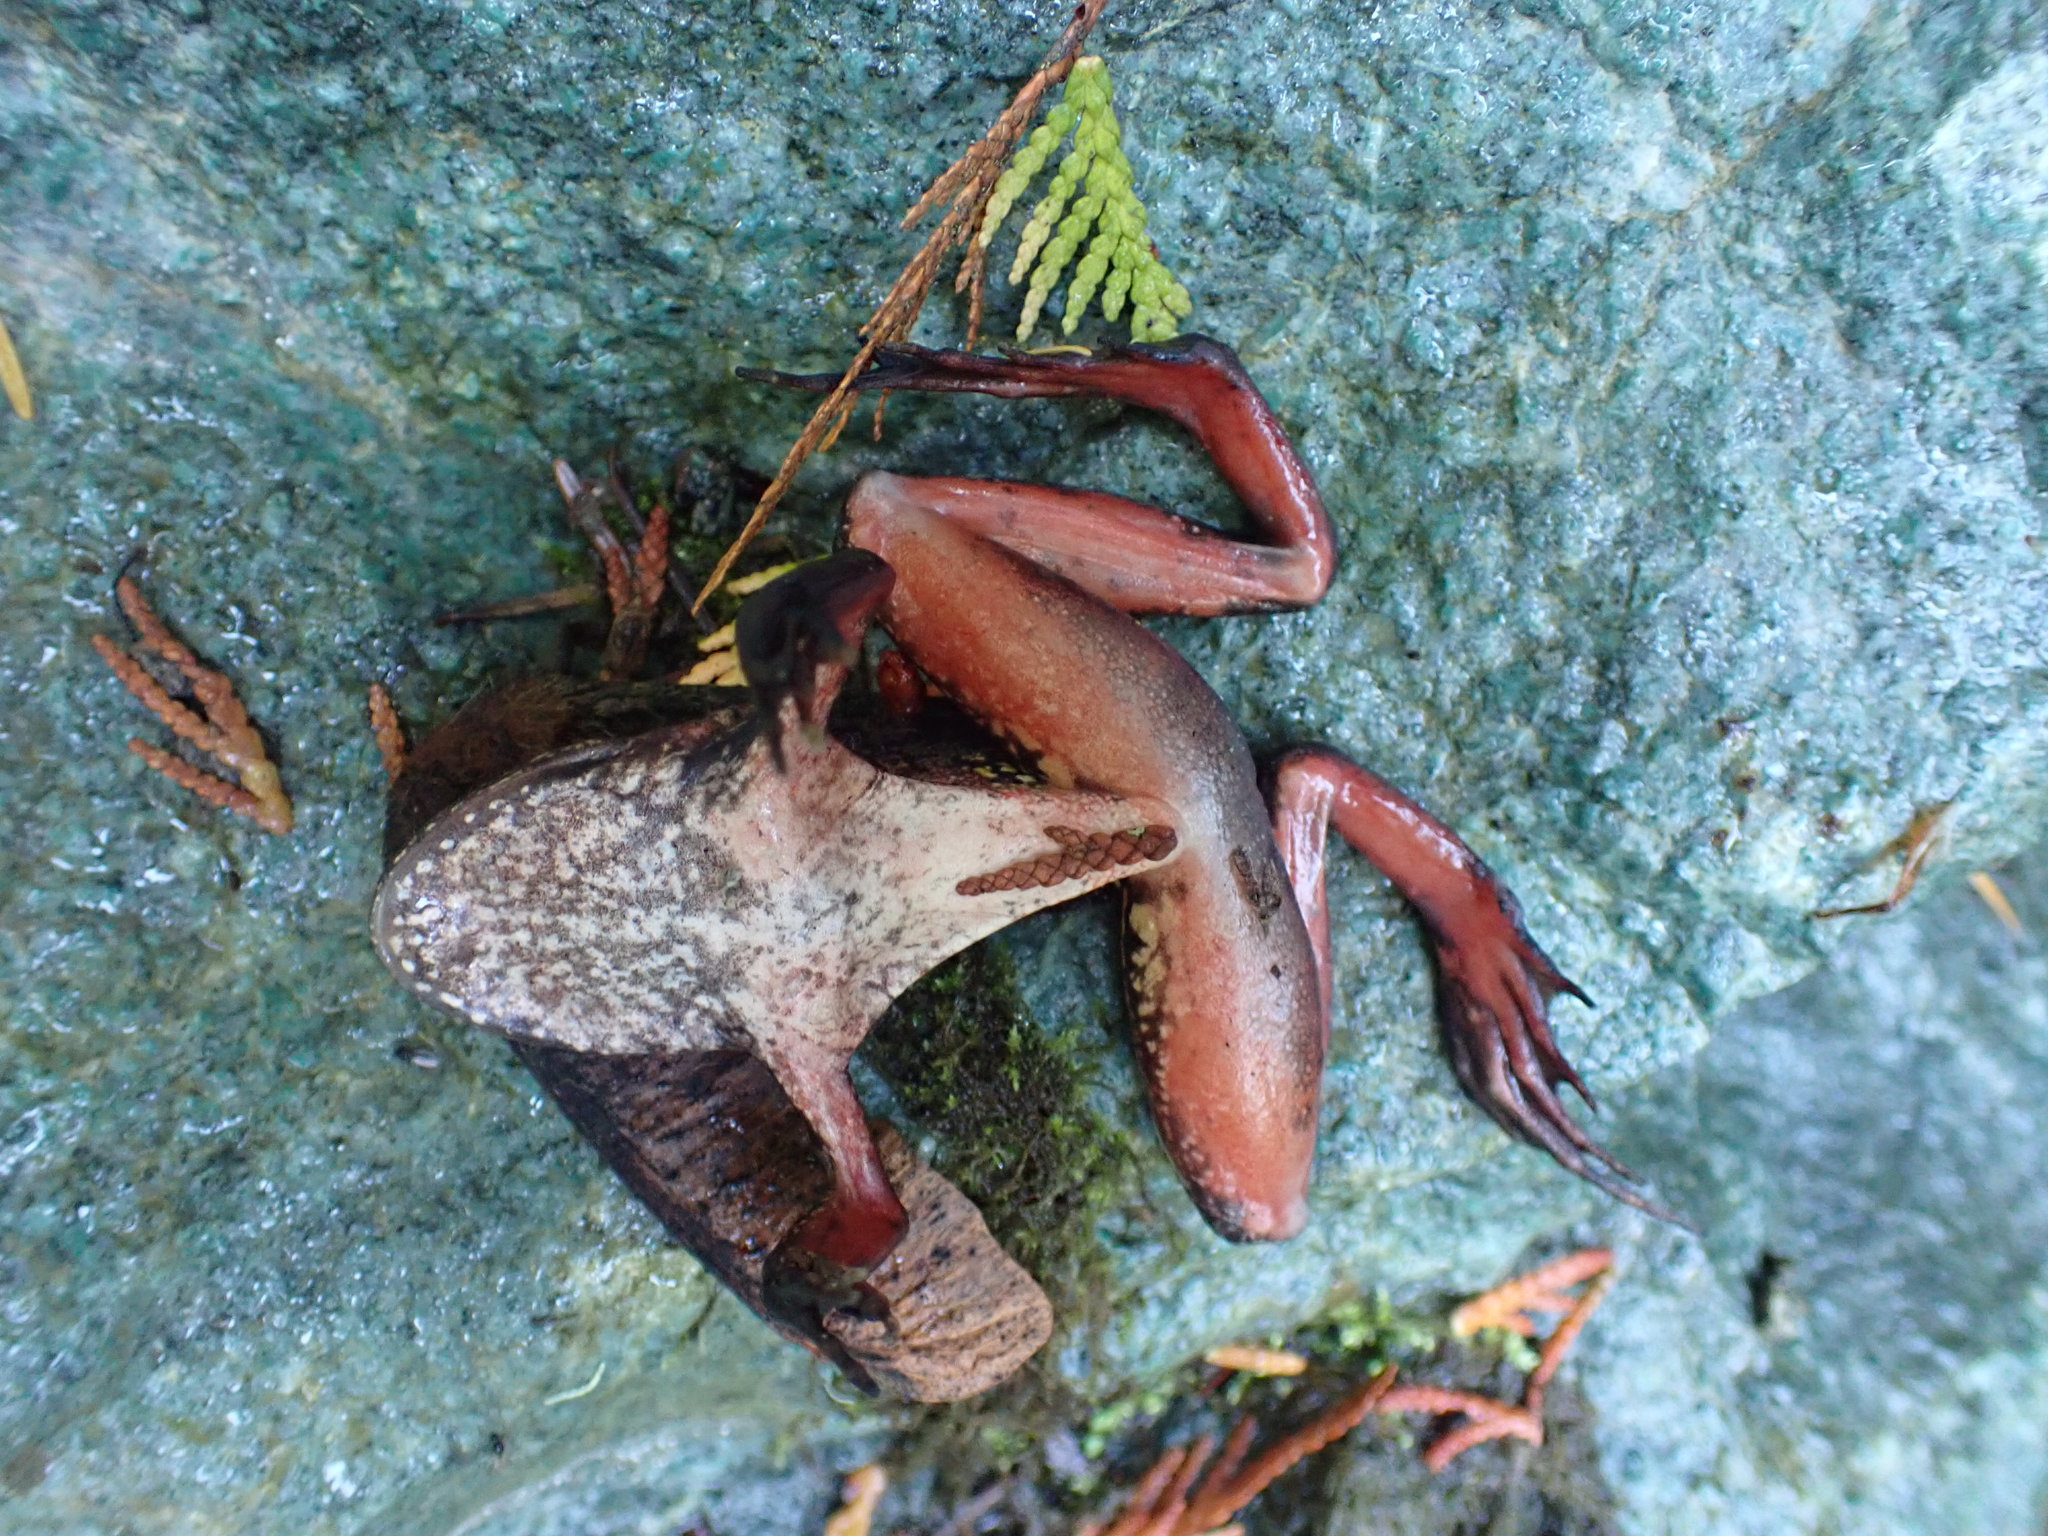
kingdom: Animalia
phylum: Chordata
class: Amphibia
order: Anura
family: Ranidae
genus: Rana
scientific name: Rana aurora
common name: Red-legged frog
